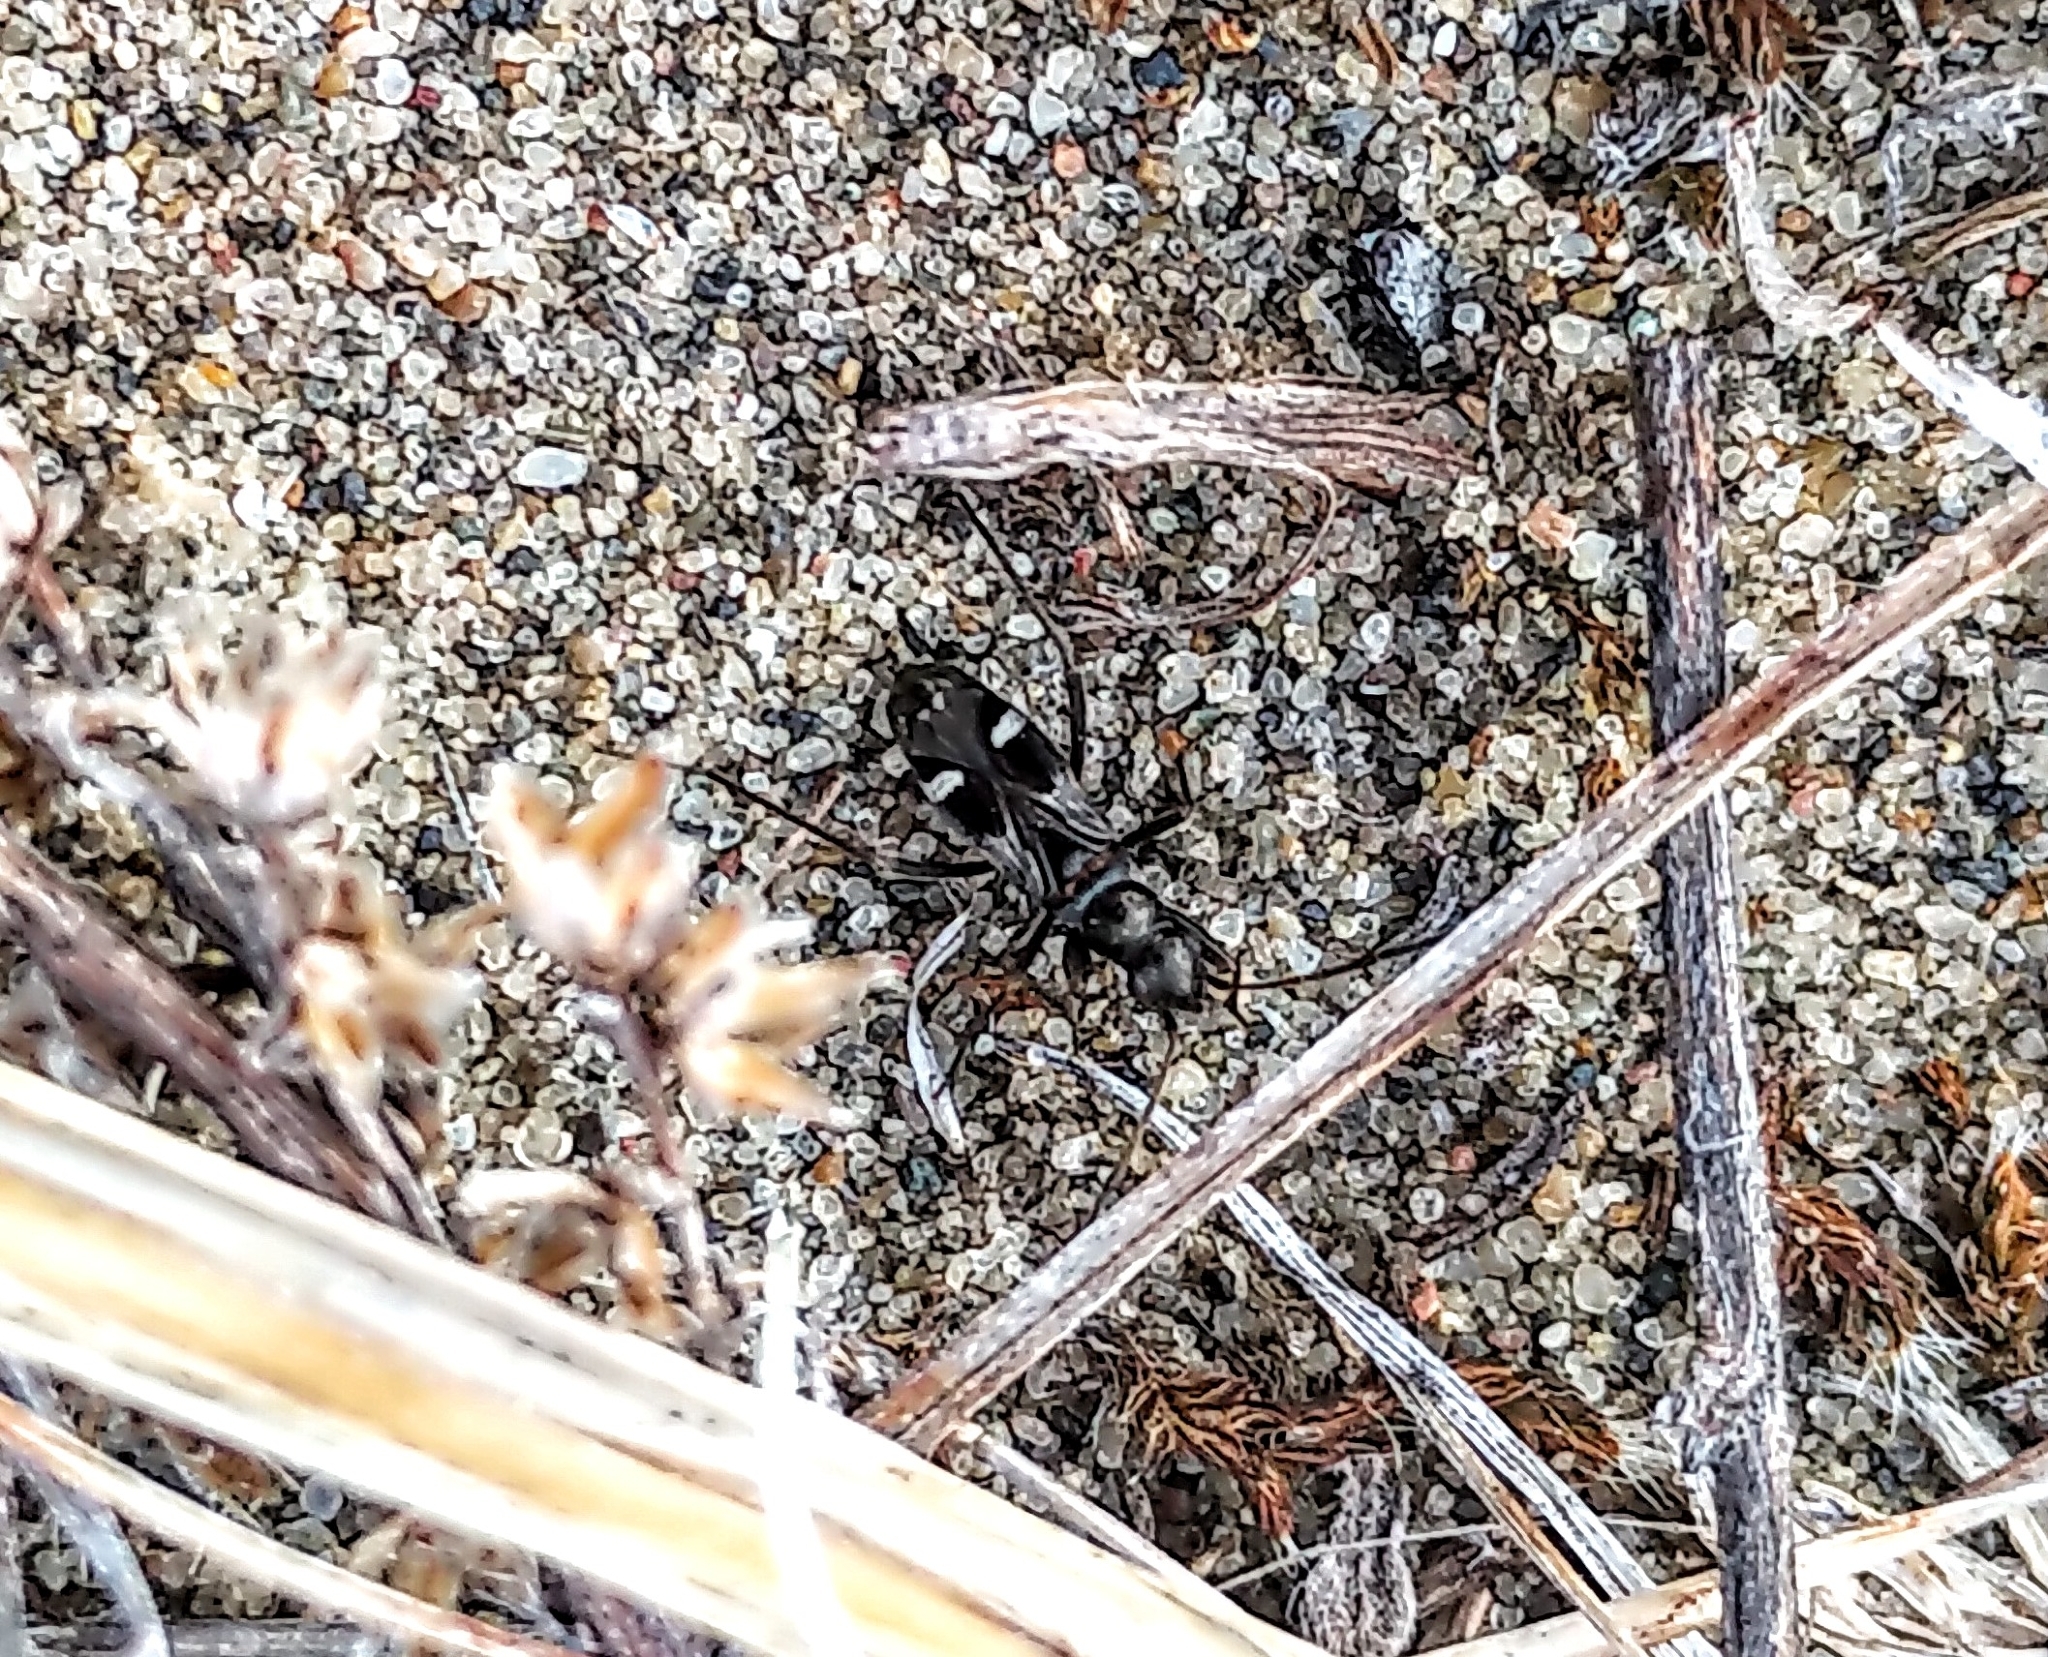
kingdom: Animalia
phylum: Arthropoda
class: Insecta
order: Hemiptera
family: Rhyparochromidae
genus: Slaterobius
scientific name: Slaterobius insignis
